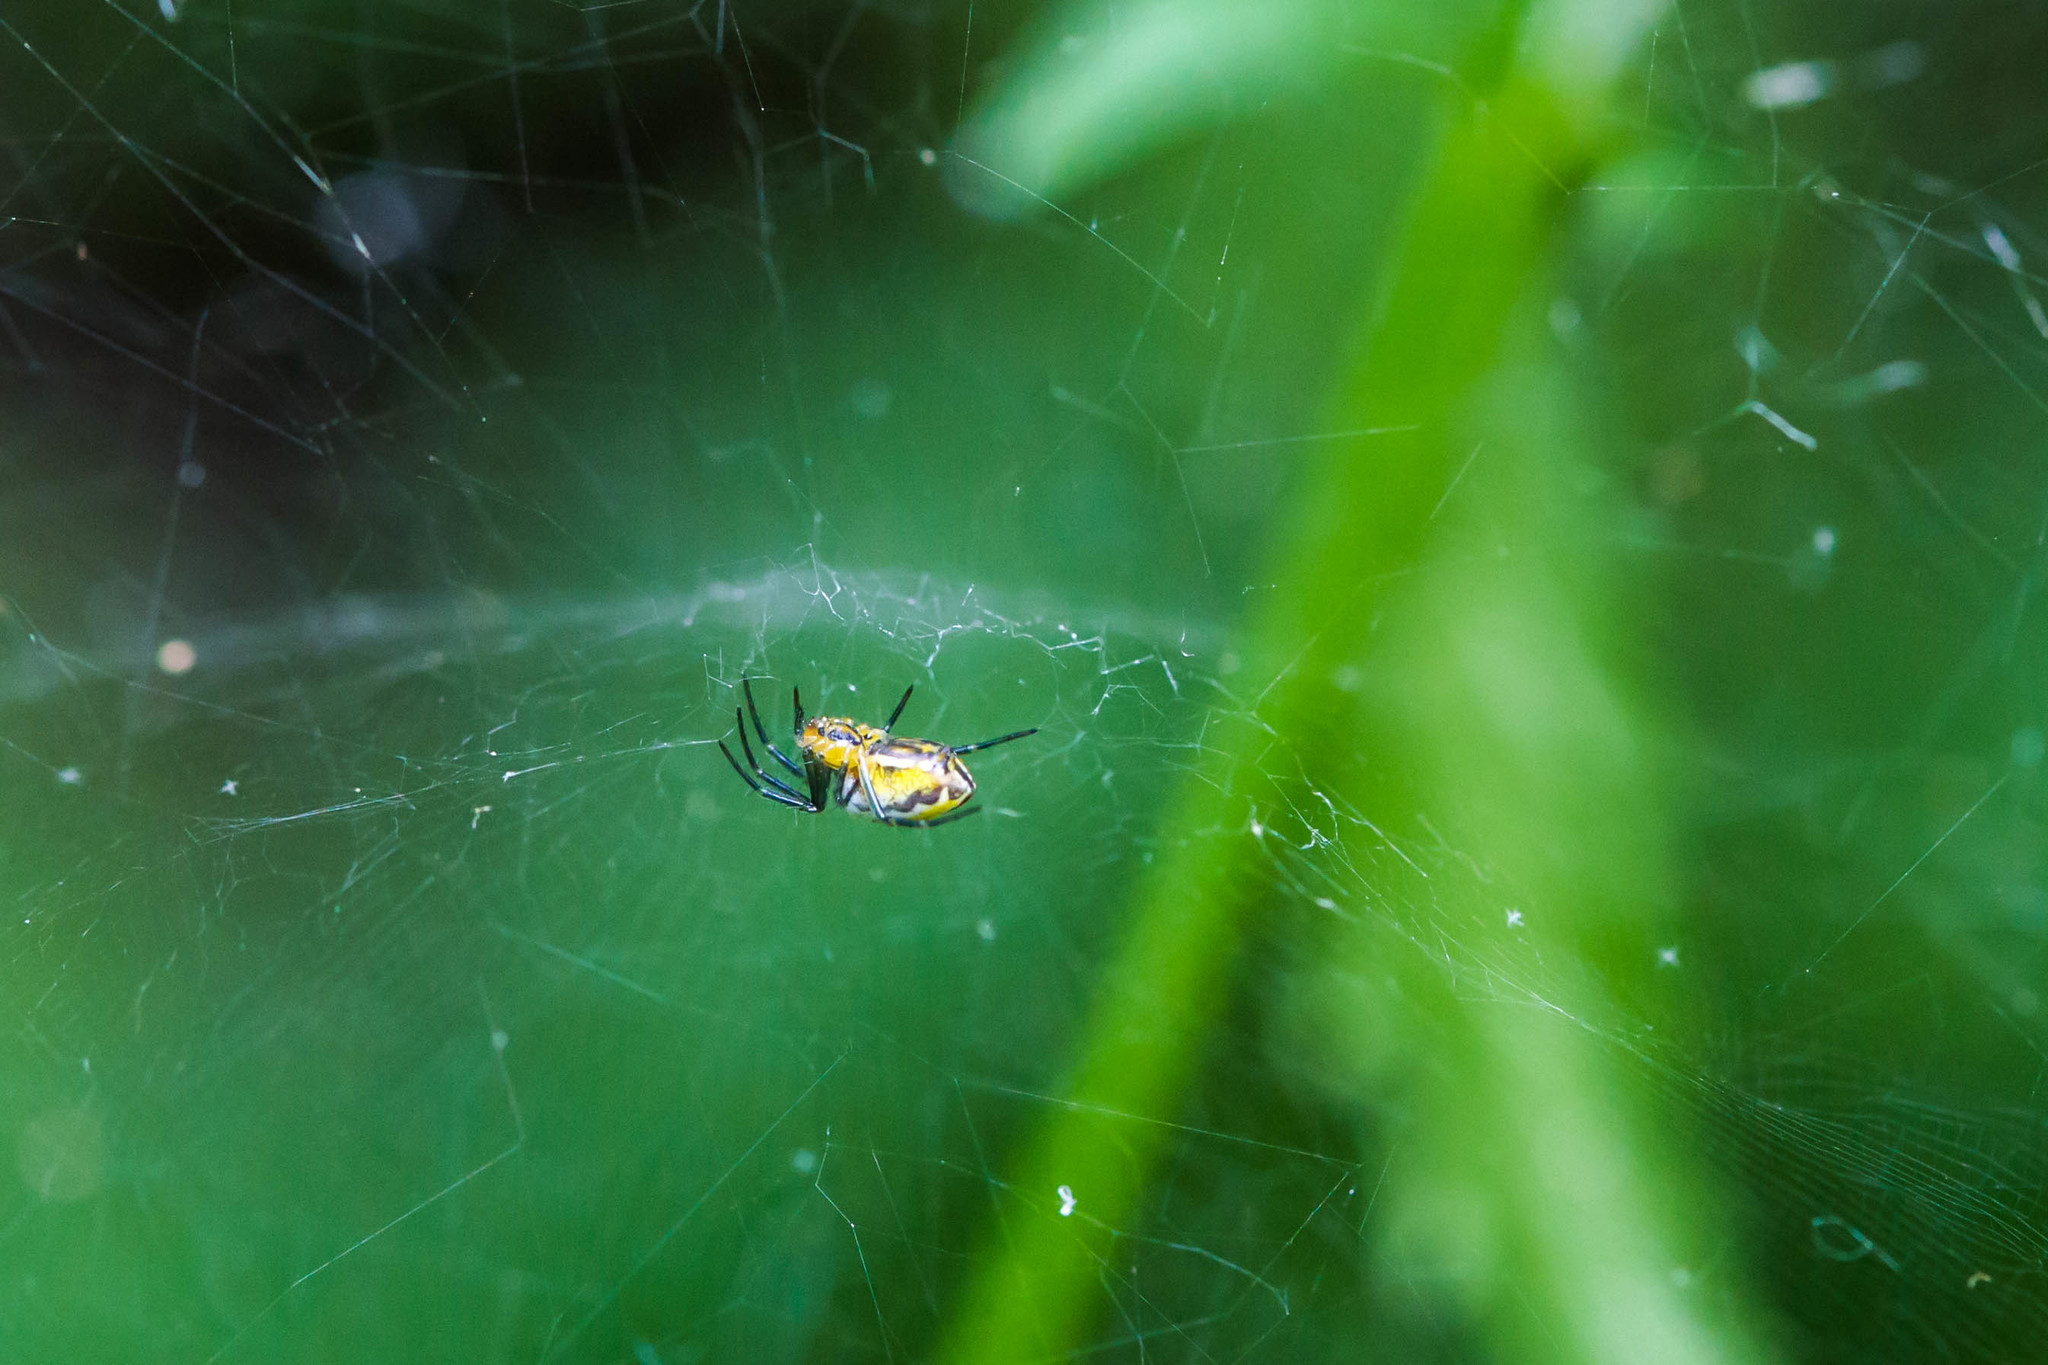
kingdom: Animalia
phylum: Arthropoda
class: Arachnida
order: Araneae
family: Araneidae
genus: Mecynogea
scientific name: Mecynogea lemniscata
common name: Orb weavers
